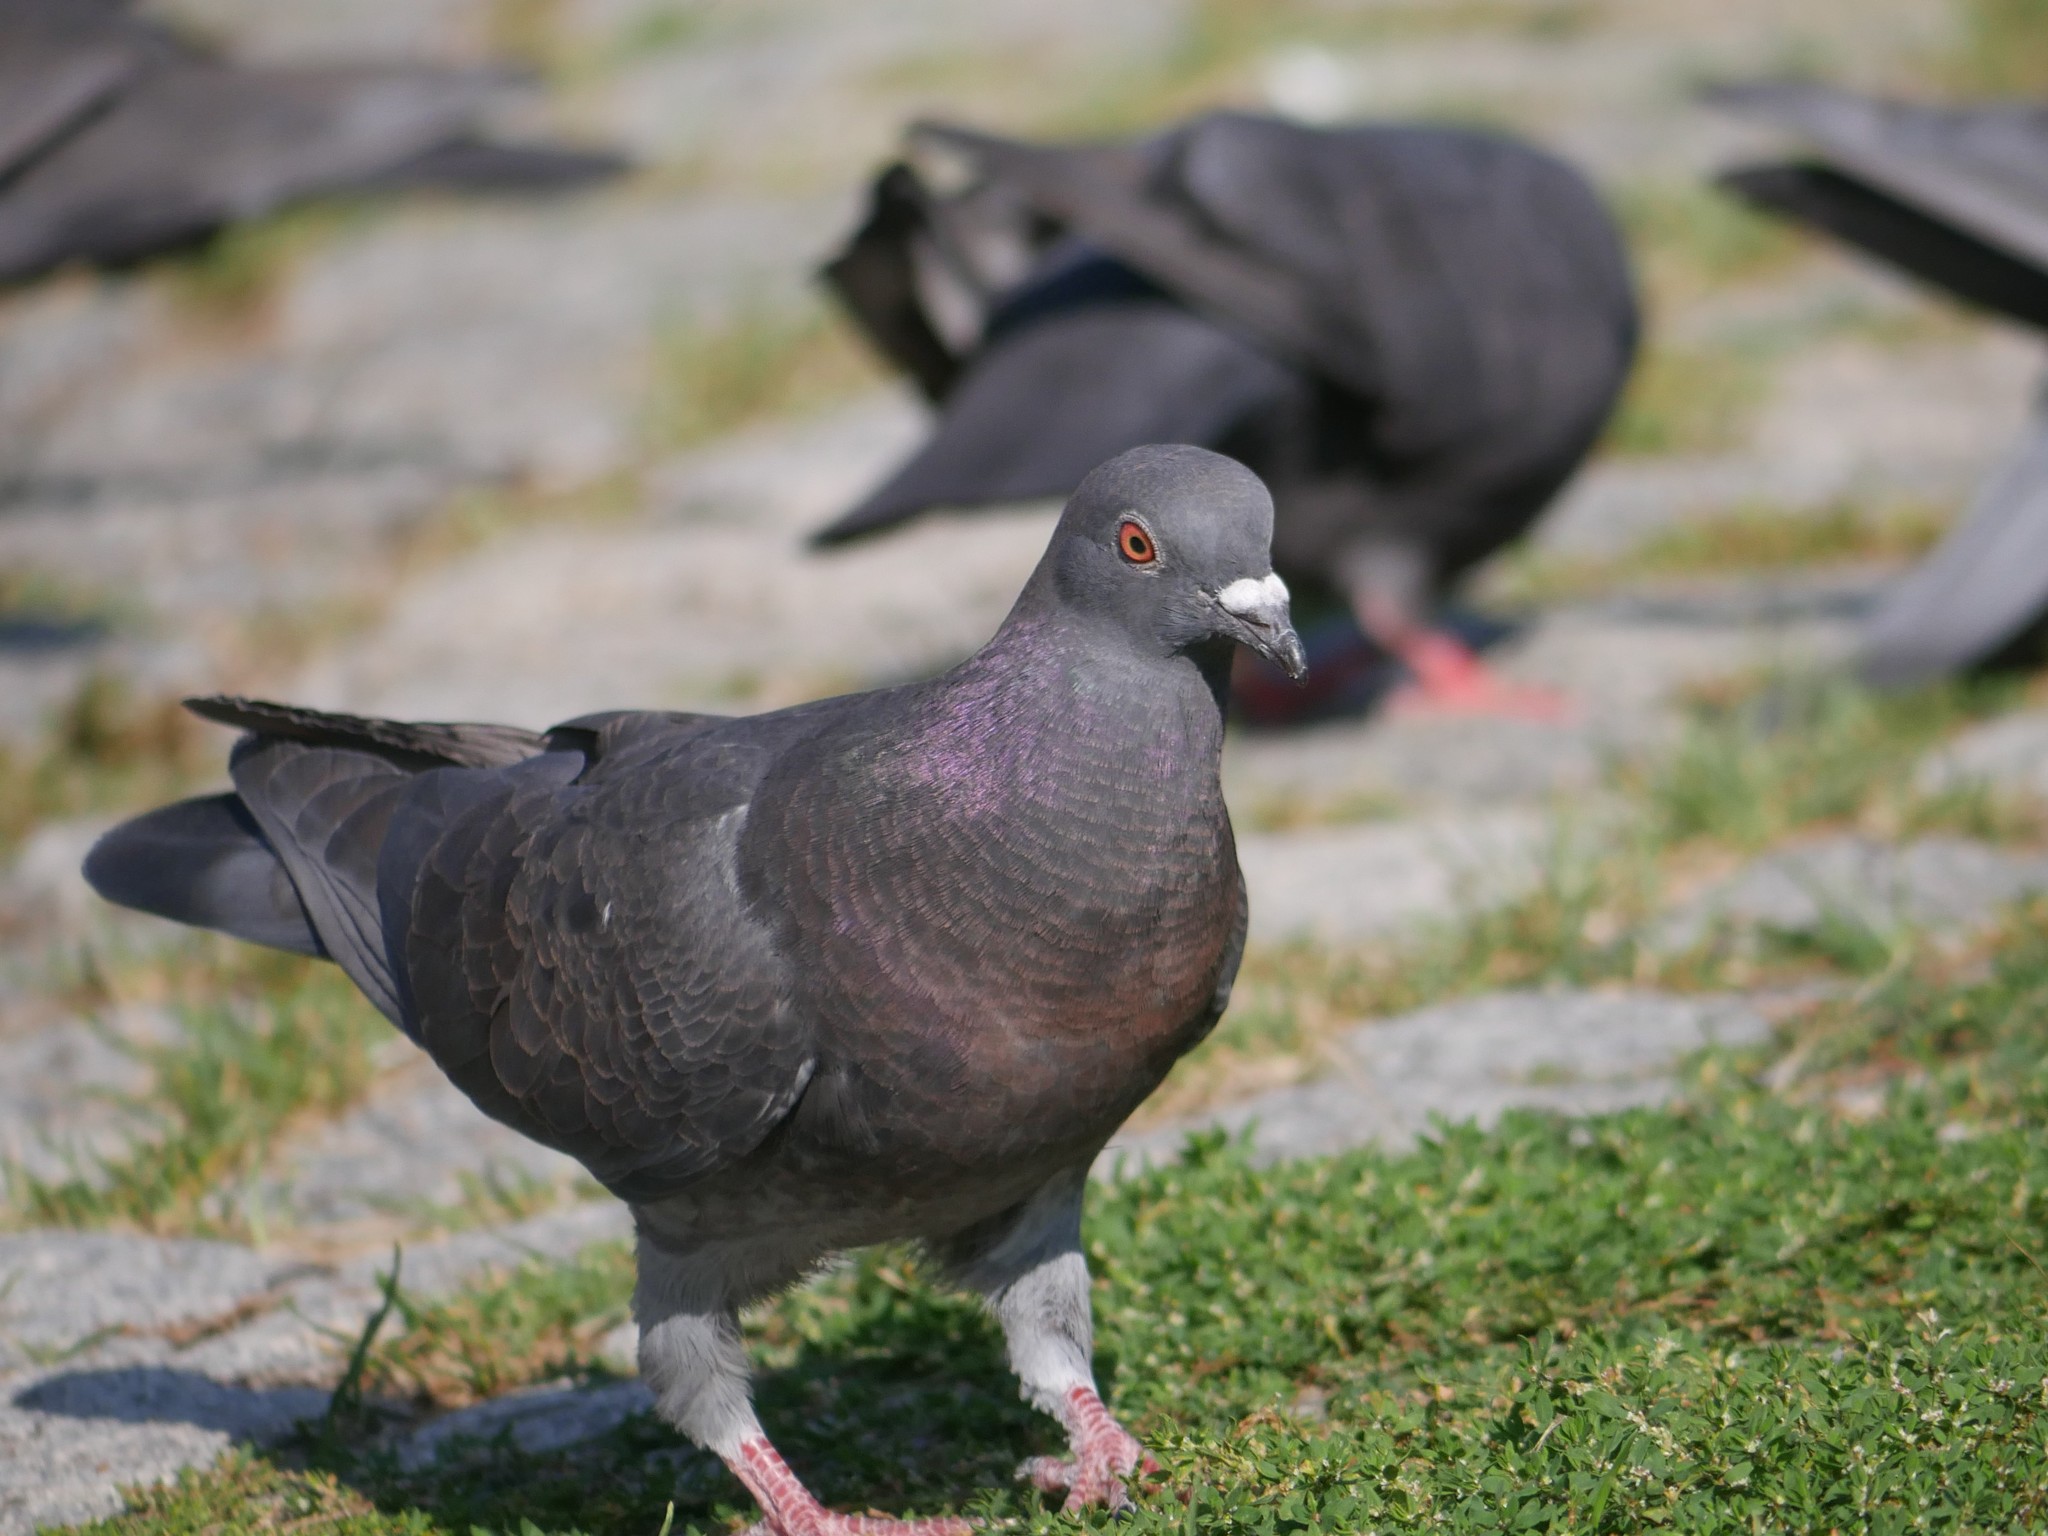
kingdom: Animalia
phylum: Chordata
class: Aves
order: Columbiformes
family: Columbidae
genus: Columba
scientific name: Columba livia
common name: Rock pigeon
